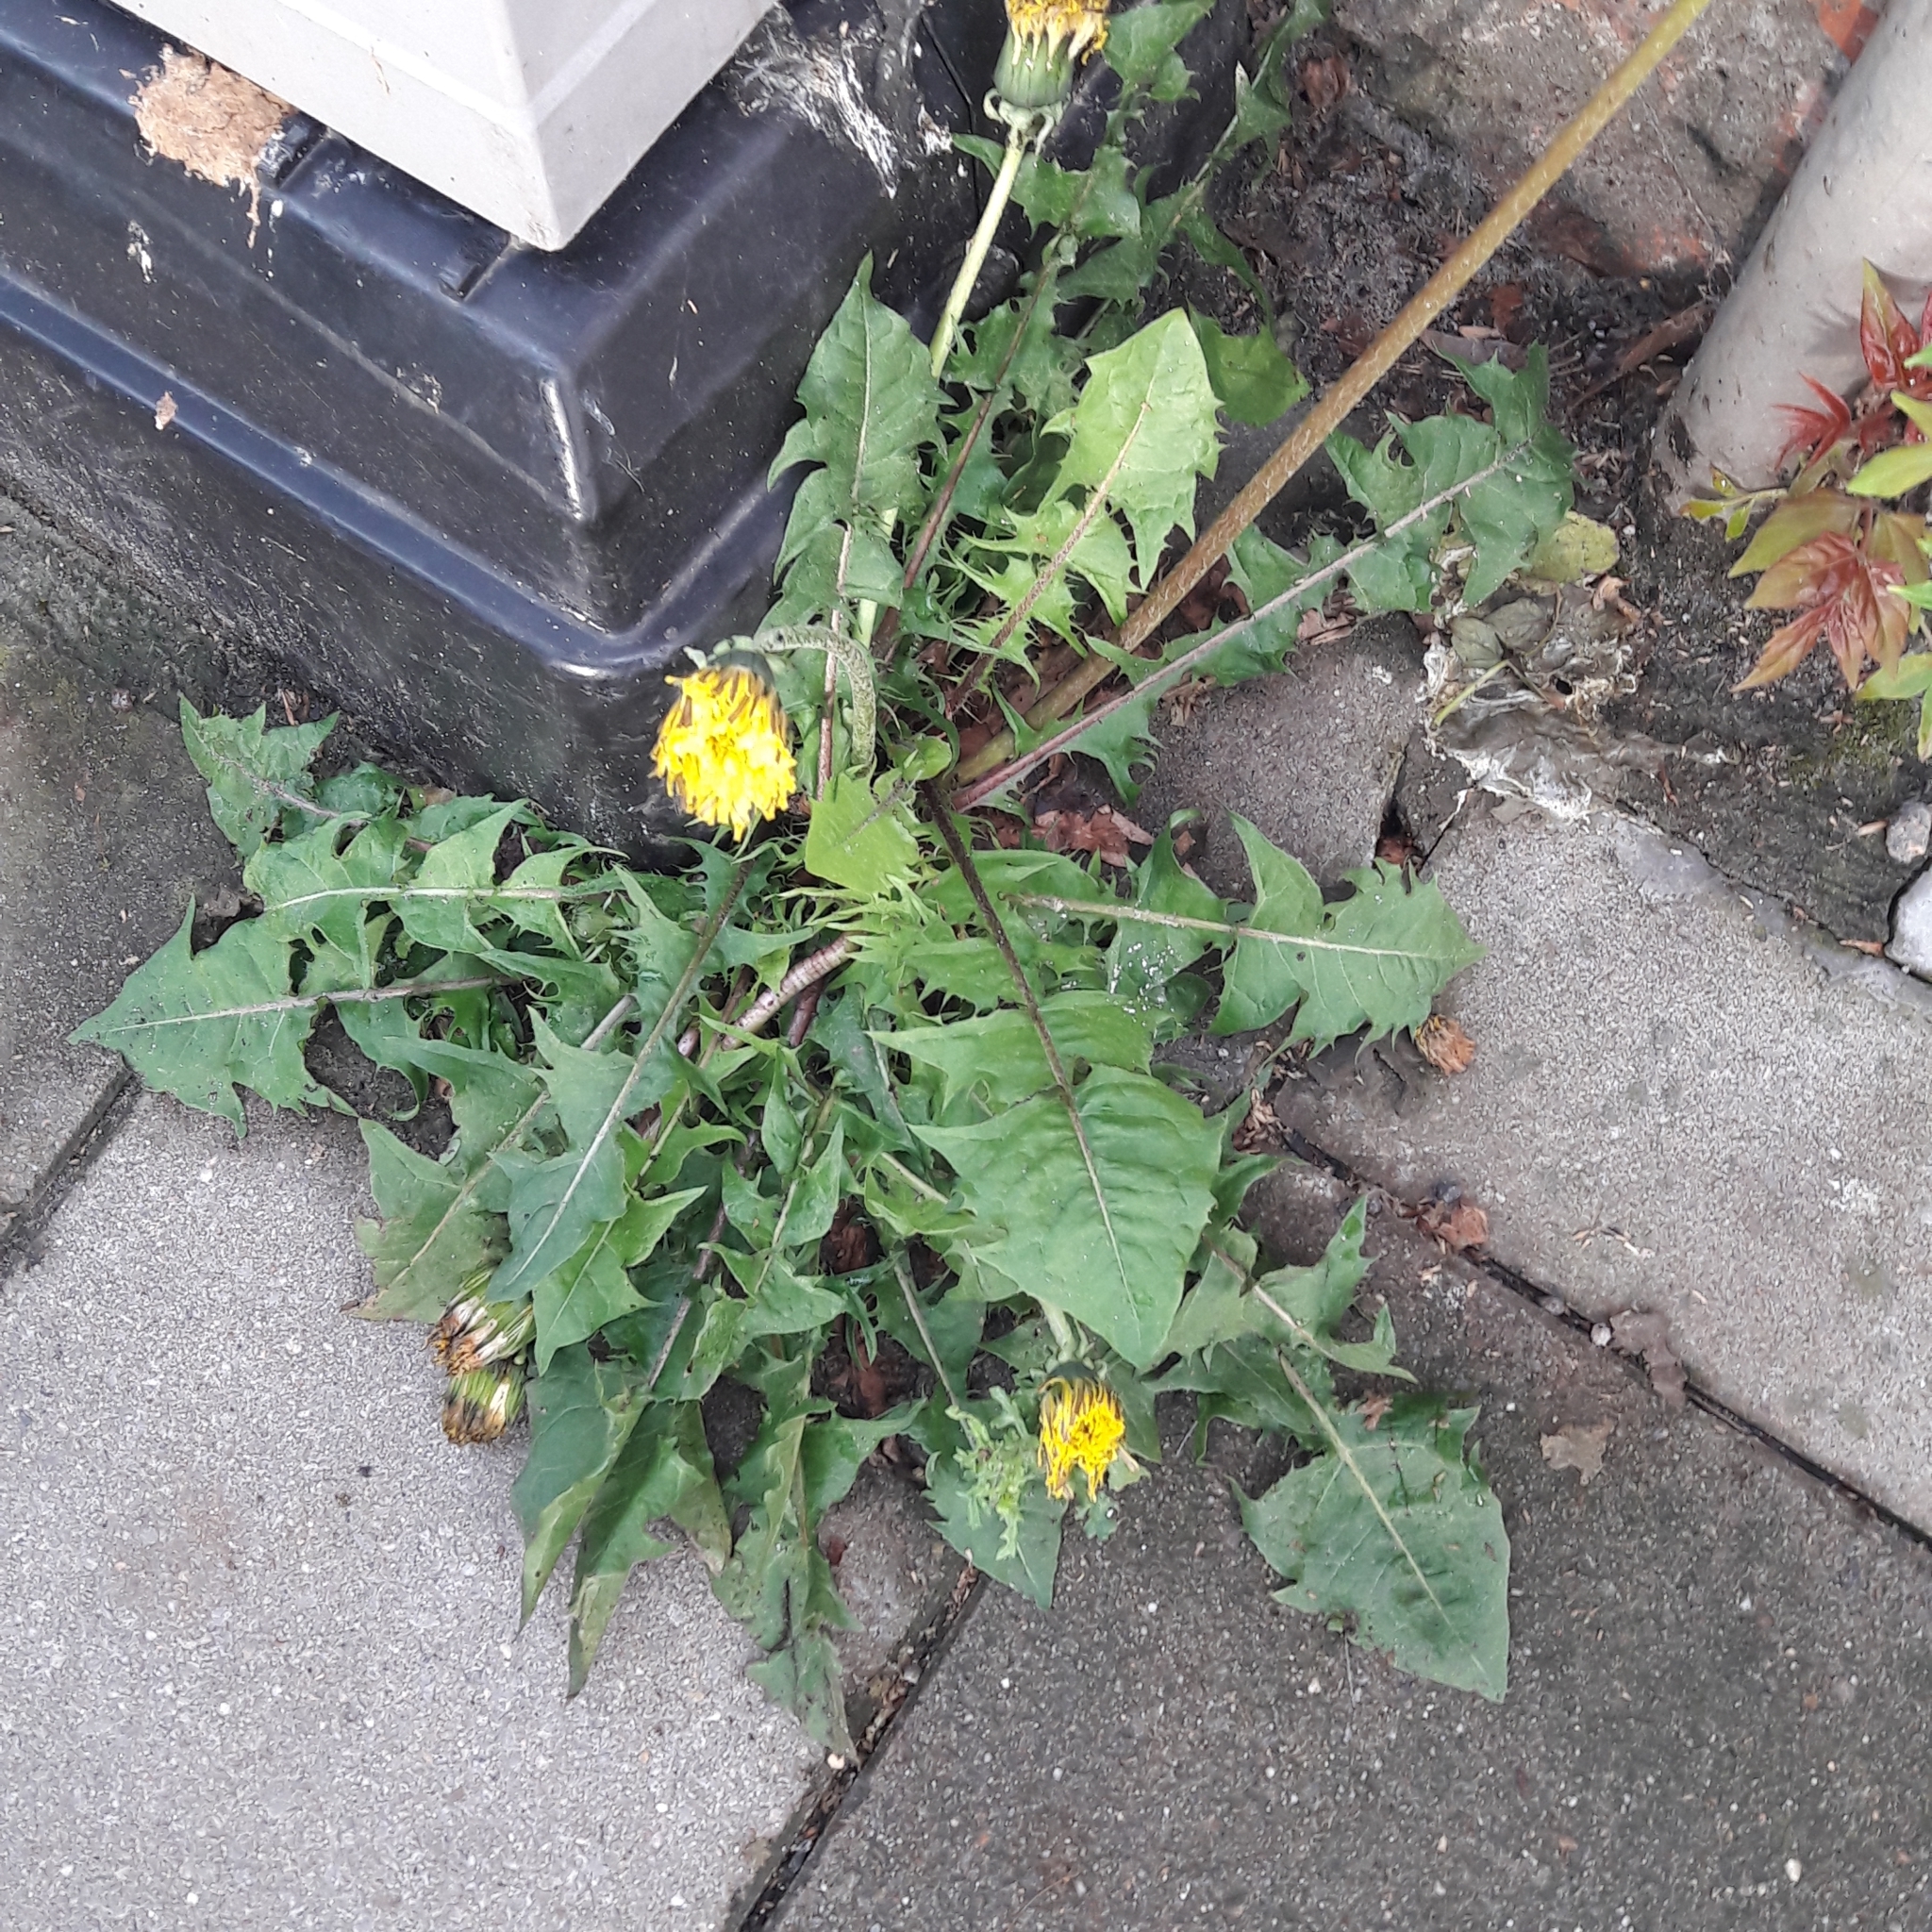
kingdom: Plantae
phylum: Tracheophyta
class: Magnoliopsida
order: Asterales
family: Asteraceae
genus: Taraxacum
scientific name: Taraxacum officinale
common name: Common dandelion
